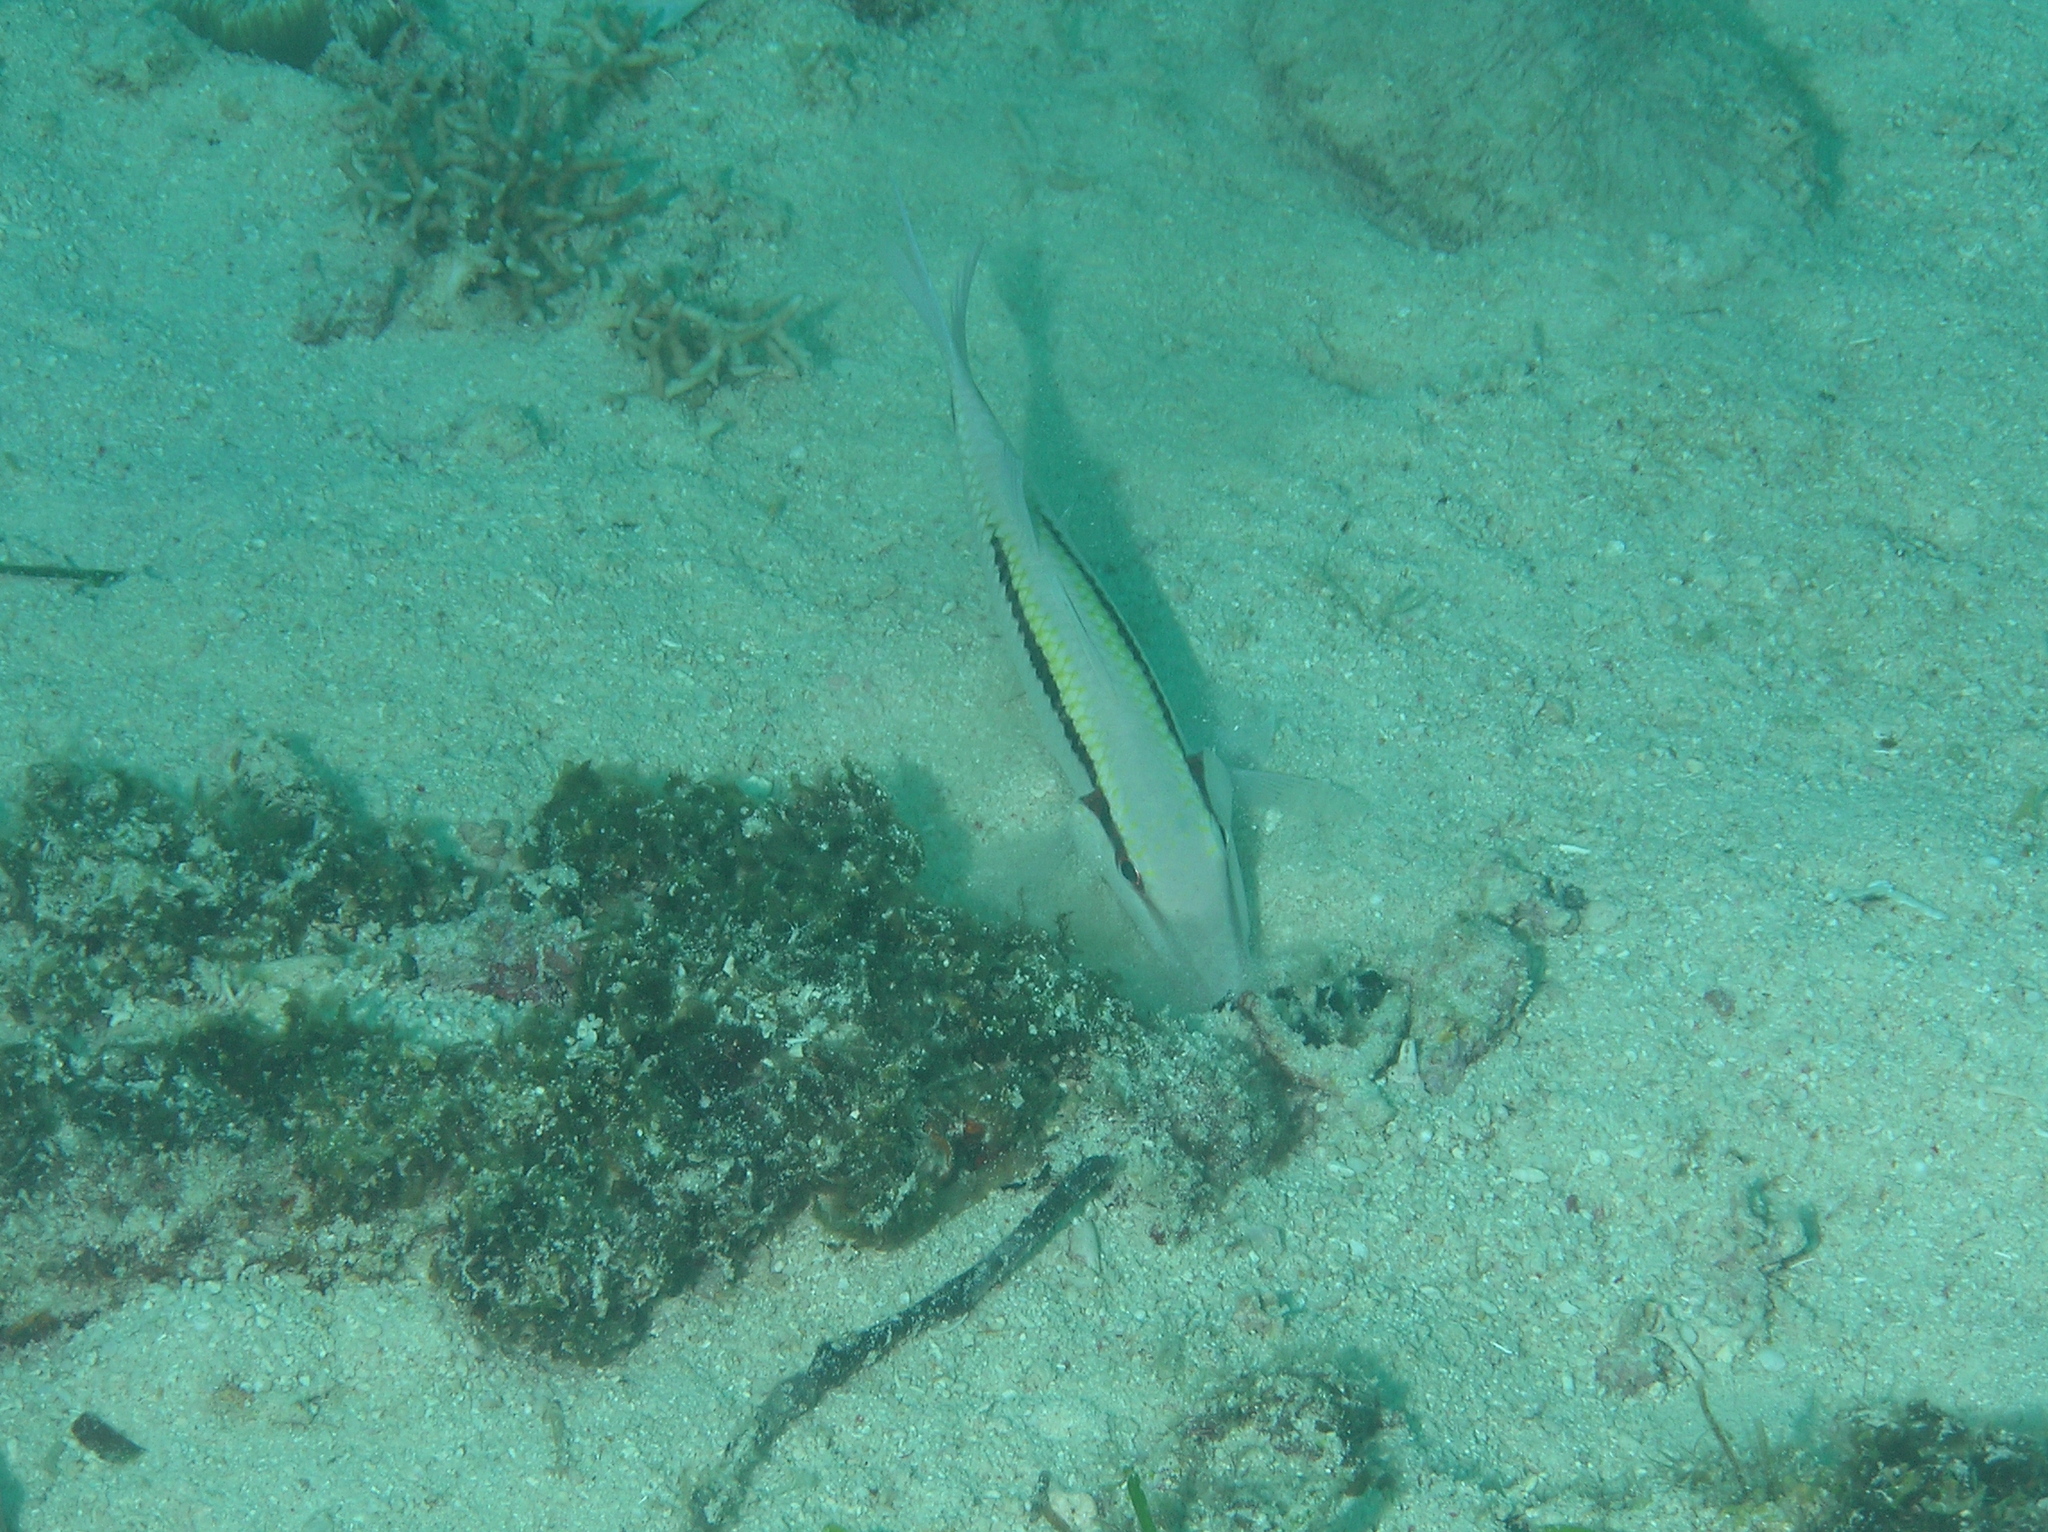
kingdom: Animalia
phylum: Chordata
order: Perciformes
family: Mullidae
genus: Parupeneus
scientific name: Parupeneus barberinus
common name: Dash-and-dot goatfish
